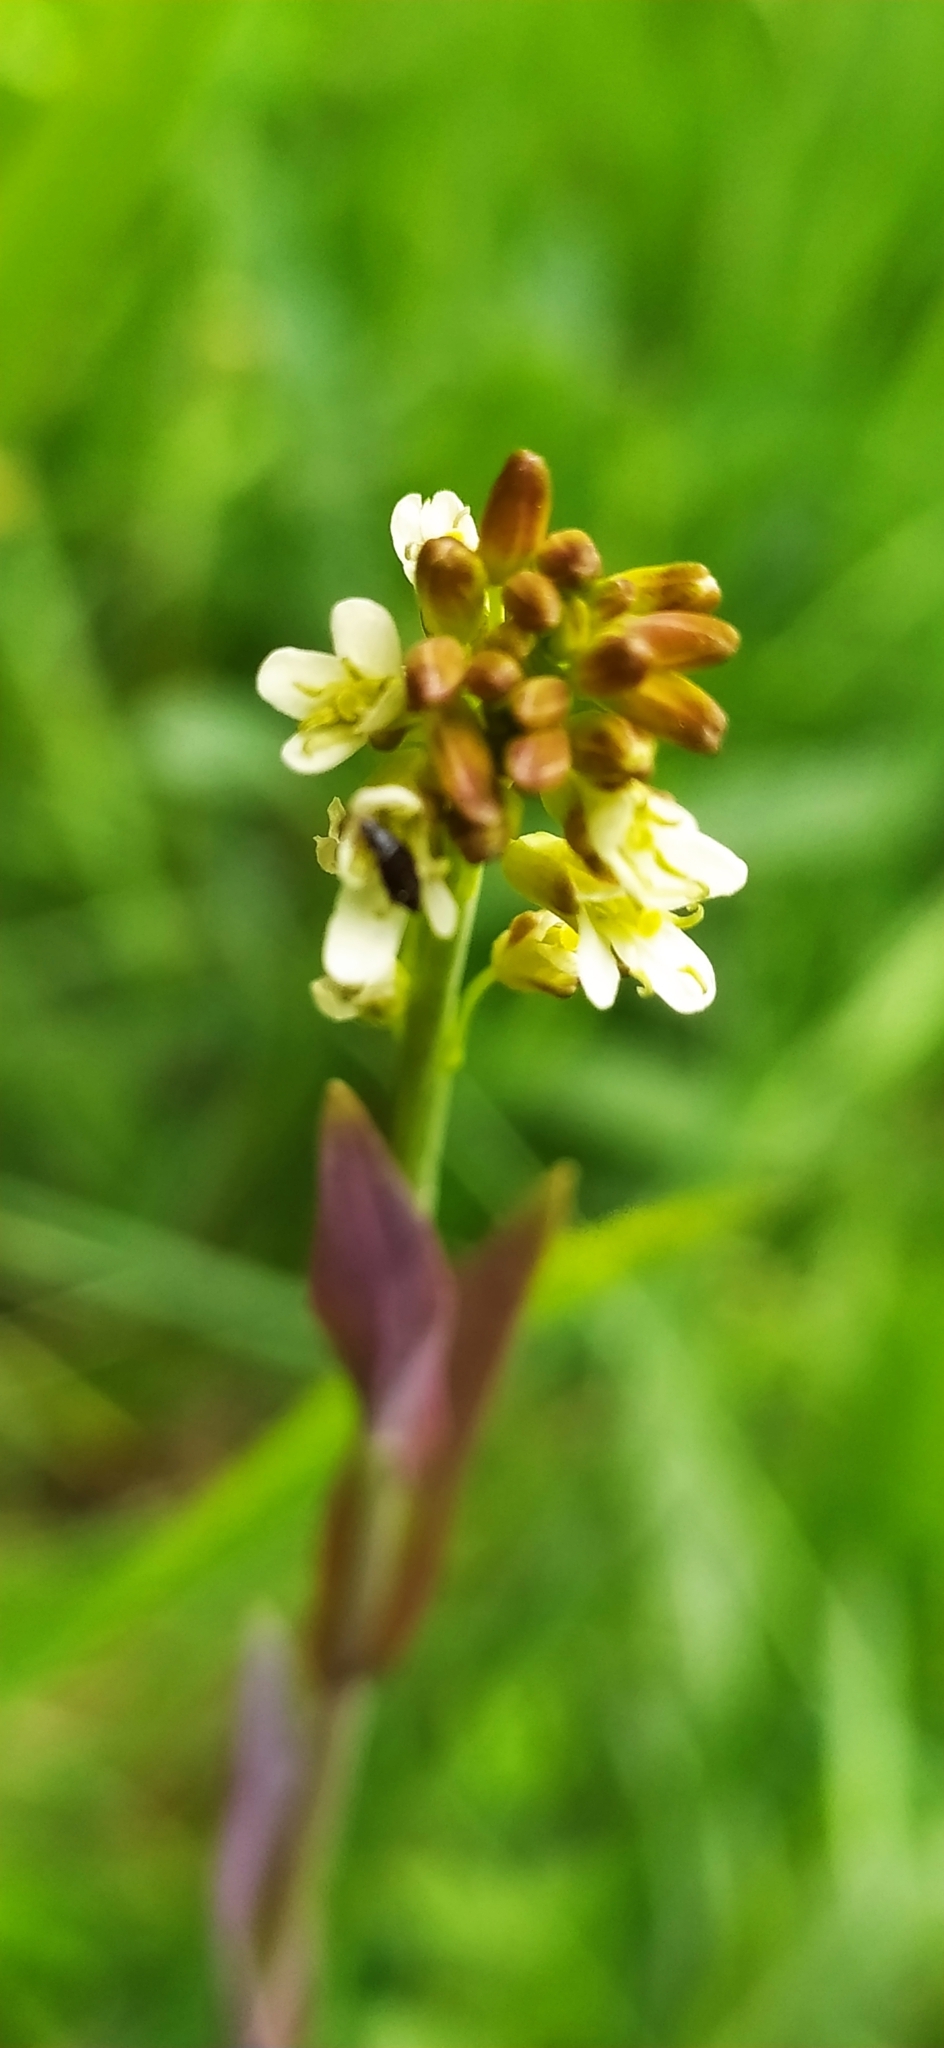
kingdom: Plantae
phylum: Tracheophyta
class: Magnoliopsida
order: Brassicales
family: Brassicaceae
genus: Turritis
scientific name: Turritis glabra
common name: Tower rockcress
